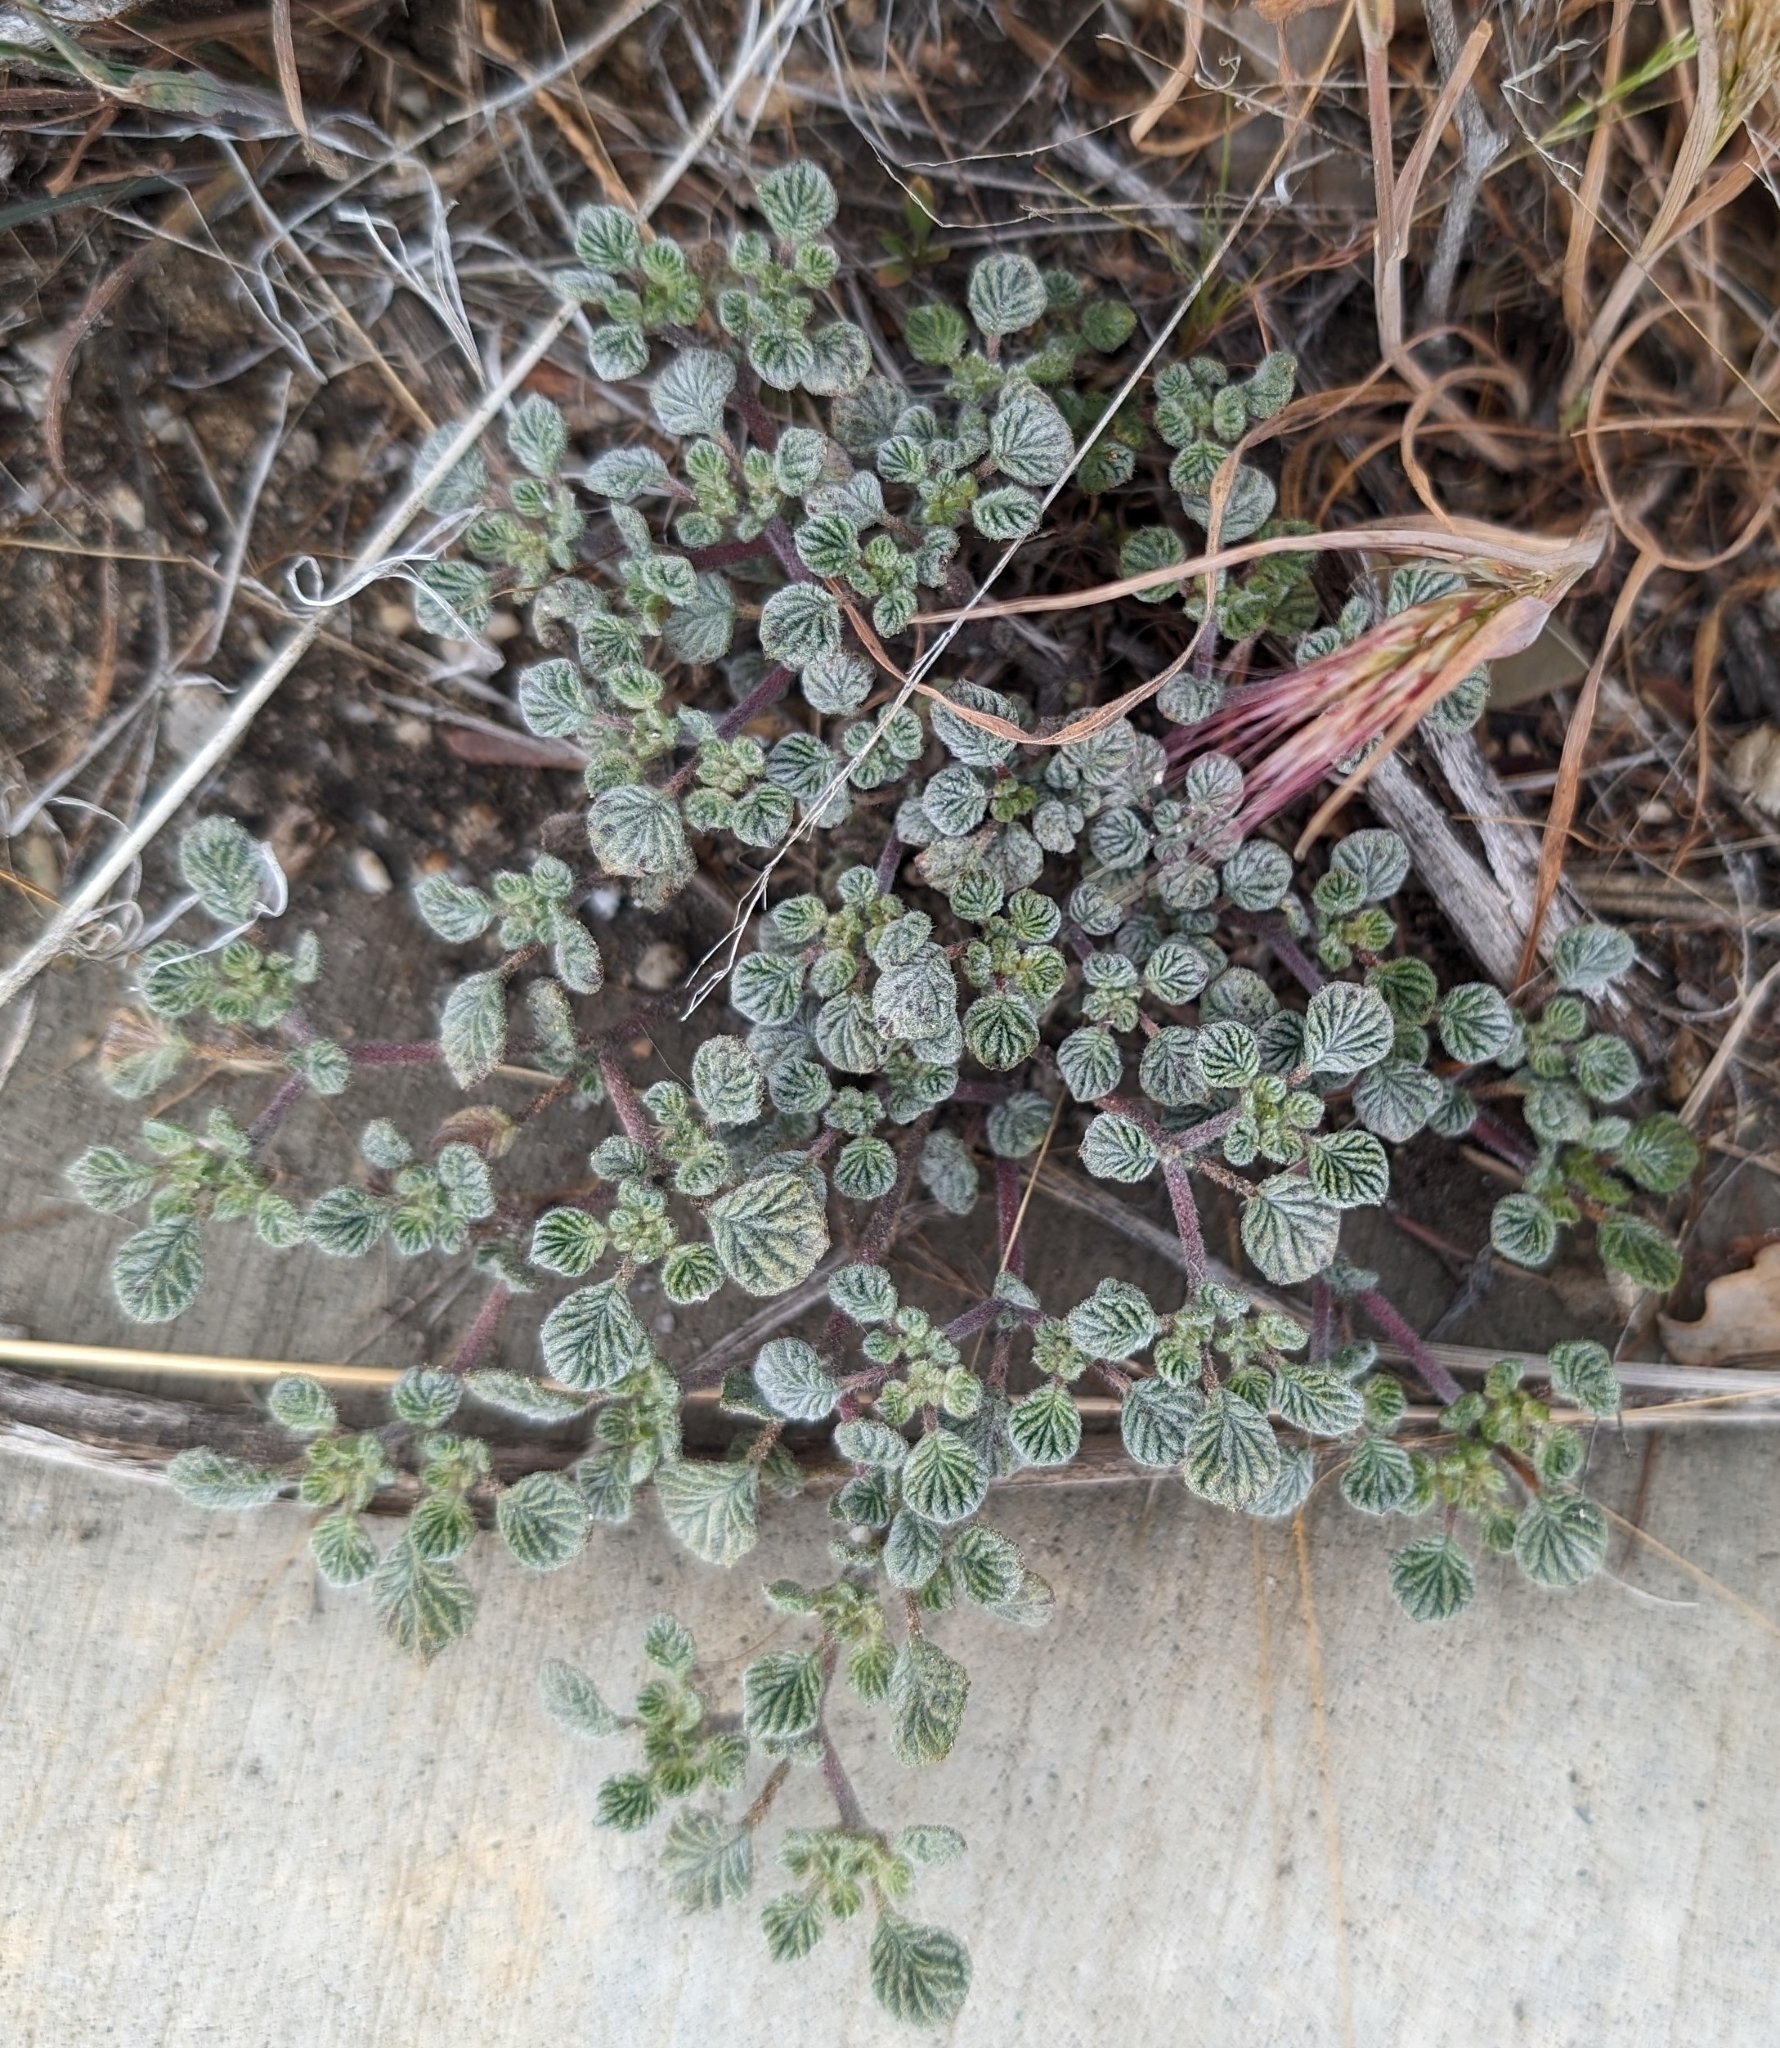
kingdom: Plantae
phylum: Tracheophyta
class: Magnoliopsida
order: Boraginales
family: Ehretiaceae
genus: Tiquilia
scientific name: Tiquilia plicata
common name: Fan-leaf tiquilia
